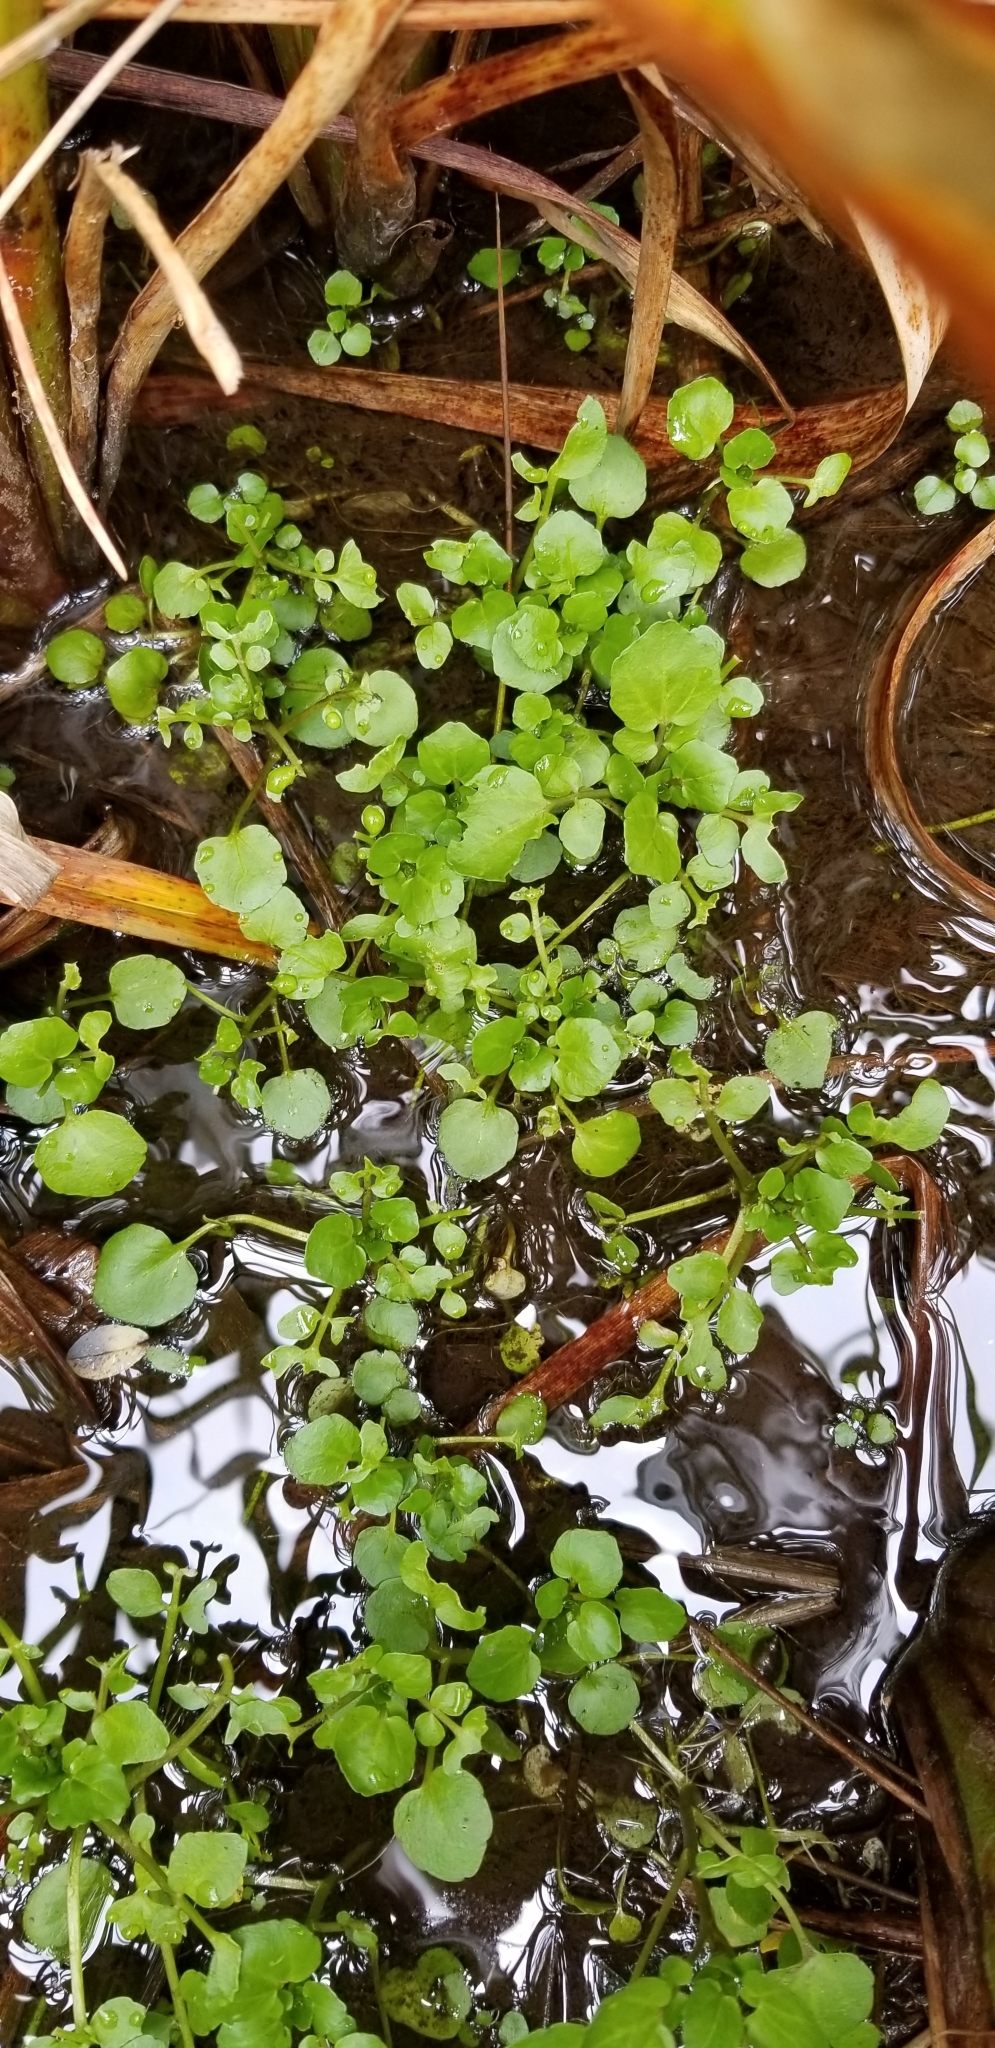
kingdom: Plantae
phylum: Tracheophyta
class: Magnoliopsida
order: Brassicales
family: Brassicaceae
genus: Nasturtium
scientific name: Nasturtium officinale
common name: Watercress
